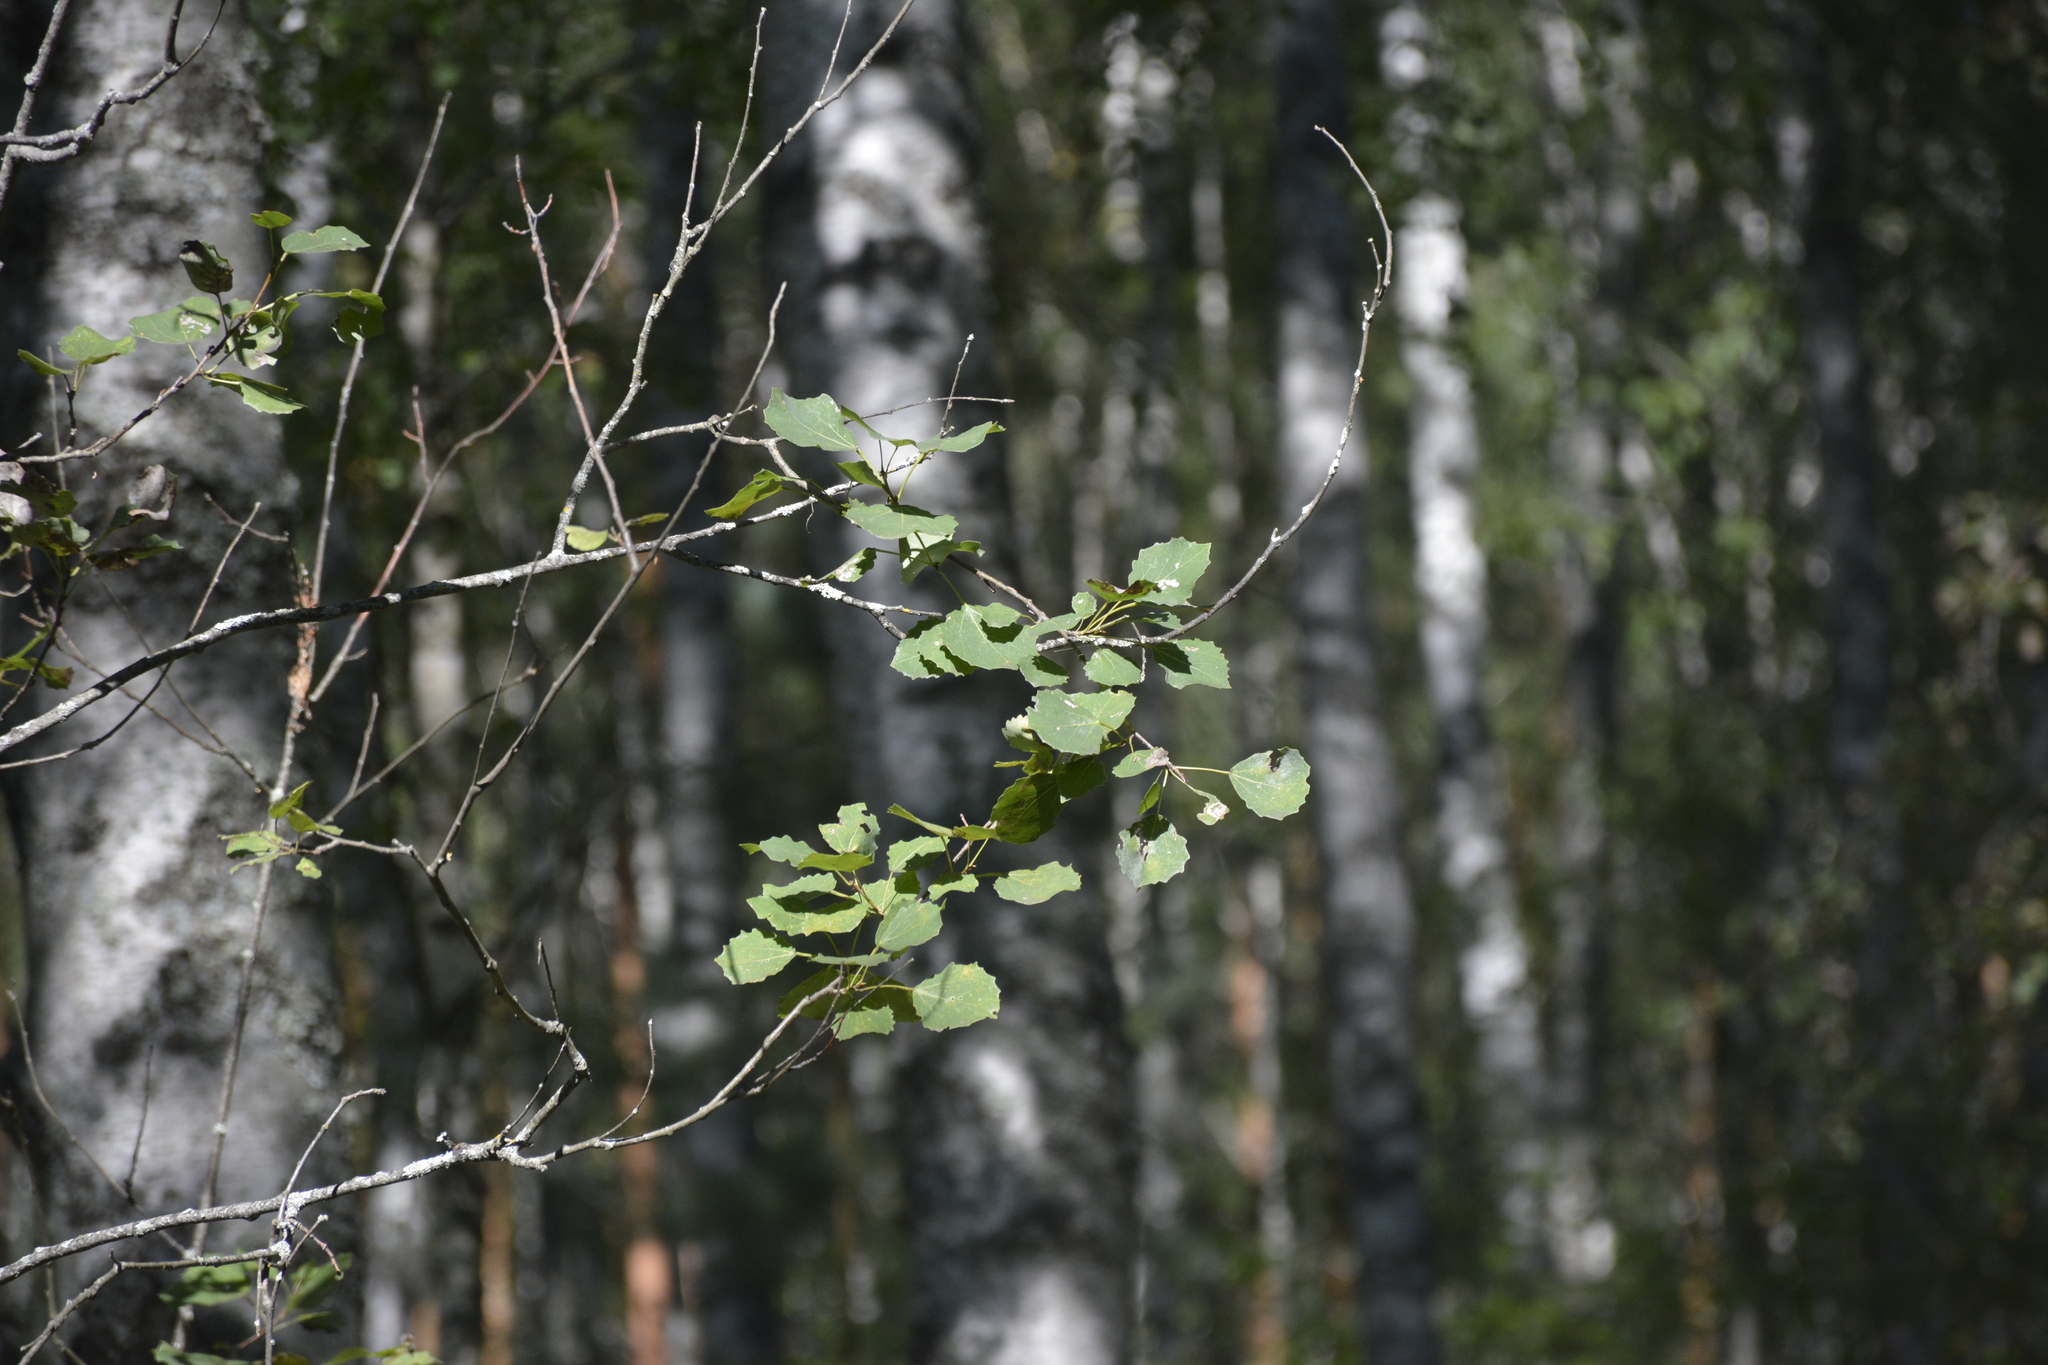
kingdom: Plantae
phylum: Tracheophyta
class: Magnoliopsida
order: Malpighiales
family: Salicaceae
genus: Populus
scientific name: Populus tremula
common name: European aspen
